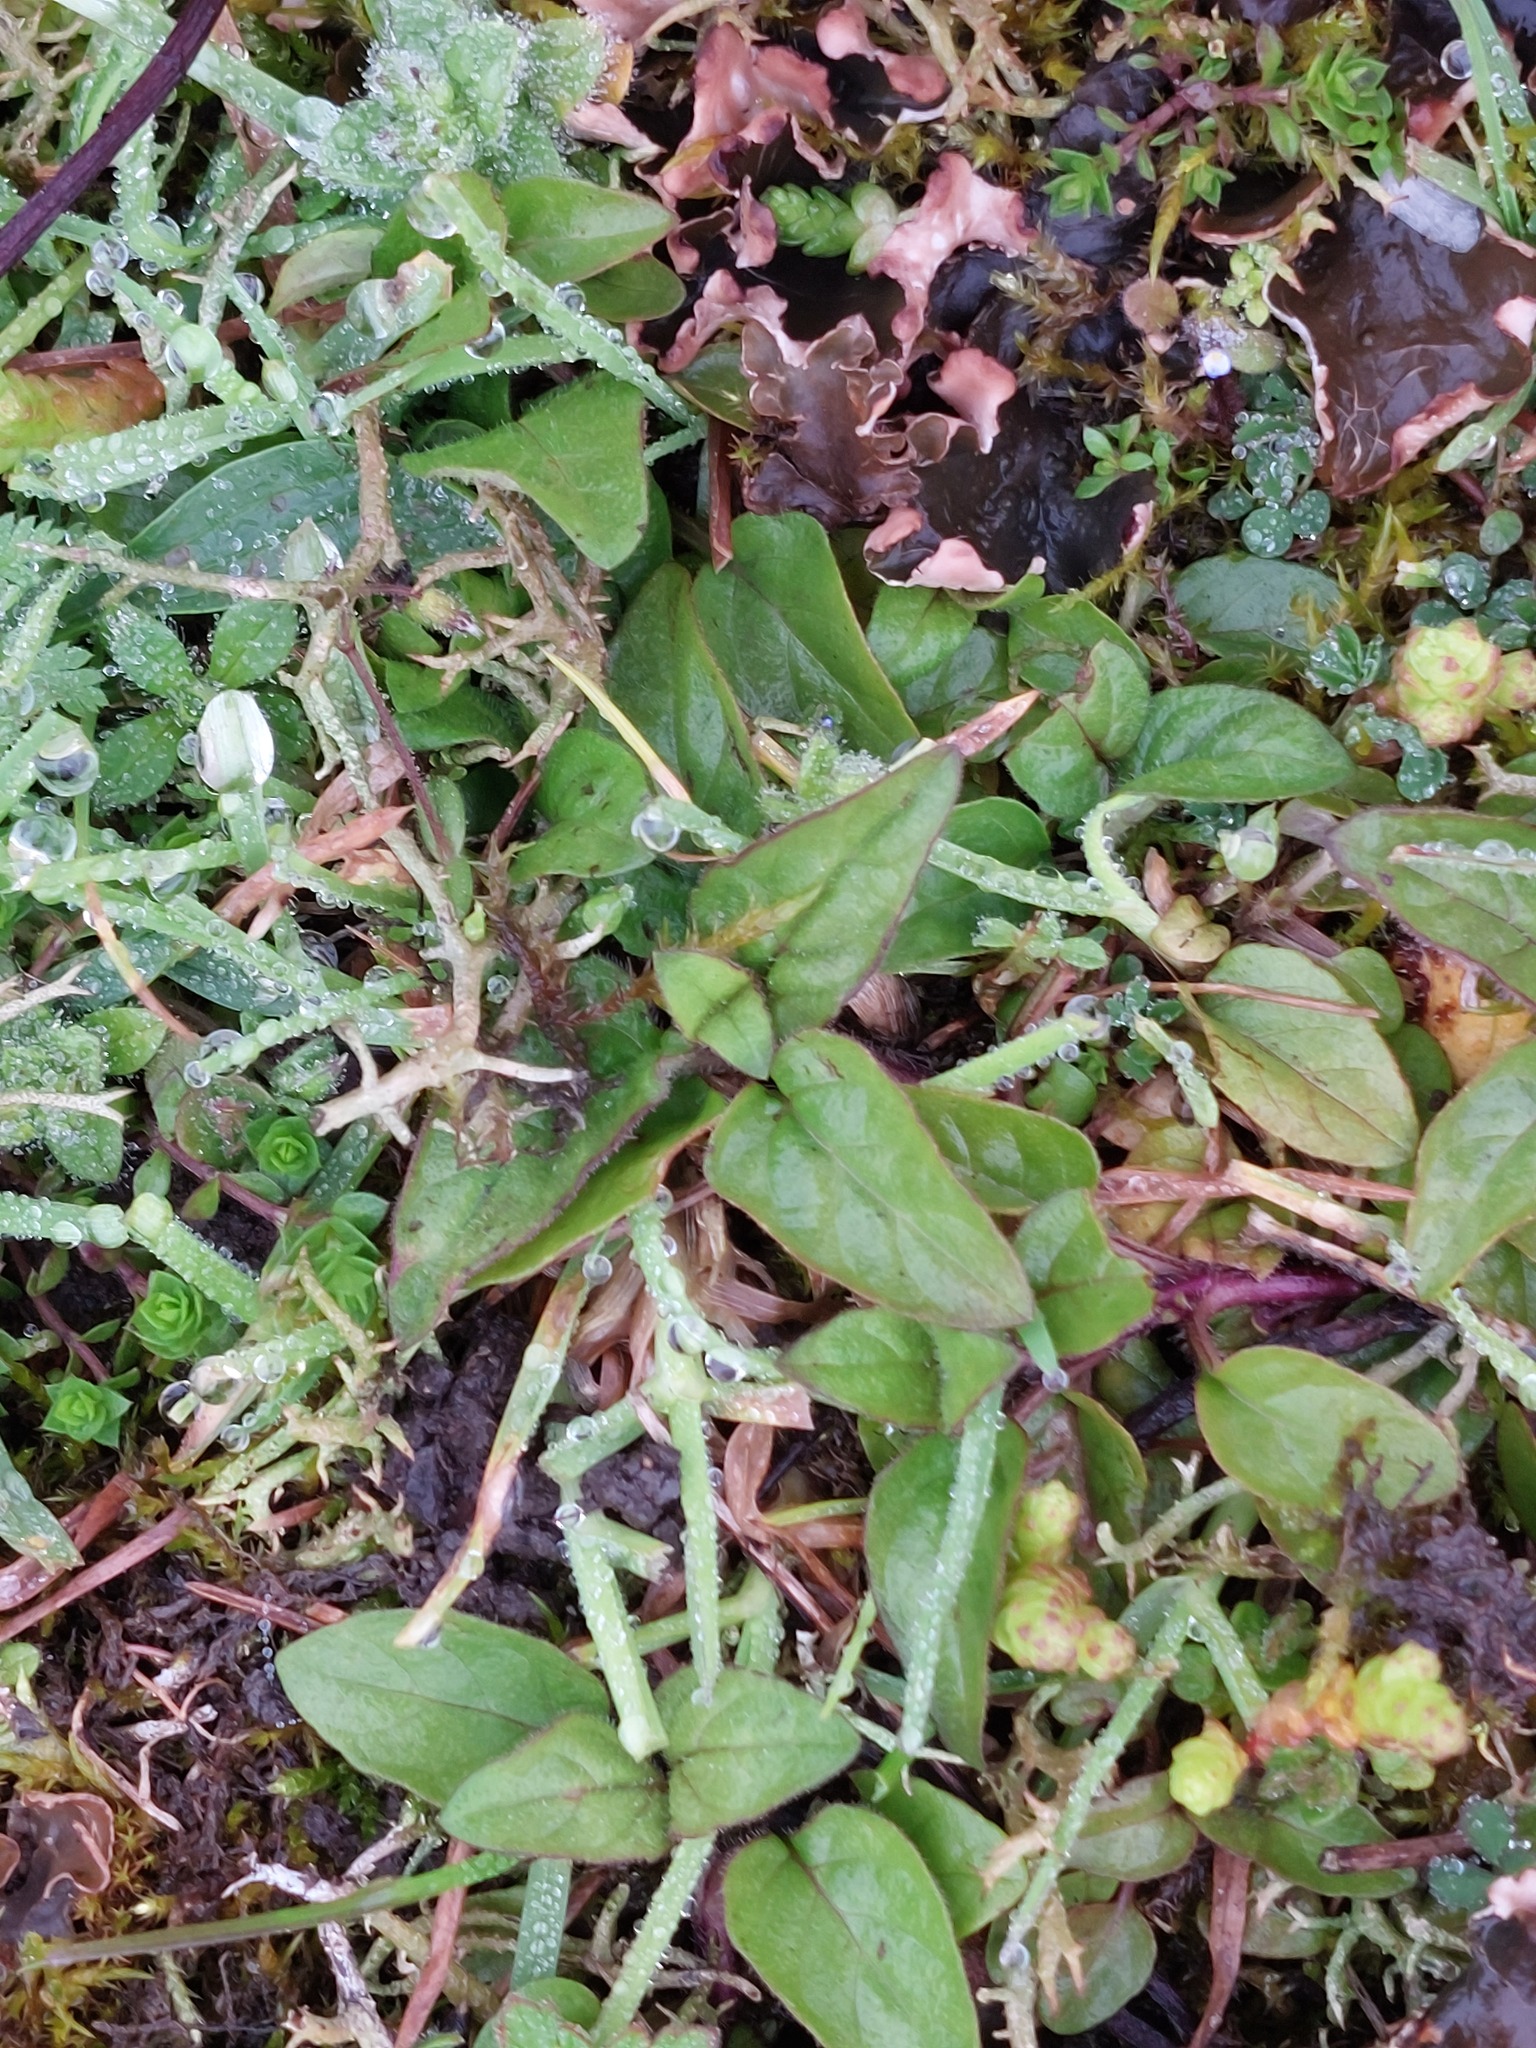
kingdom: Plantae
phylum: Tracheophyta
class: Magnoliopsida
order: Lamiales
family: Lamiaceae
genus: Prunella
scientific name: Prunella vulgaris
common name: Heal-all
